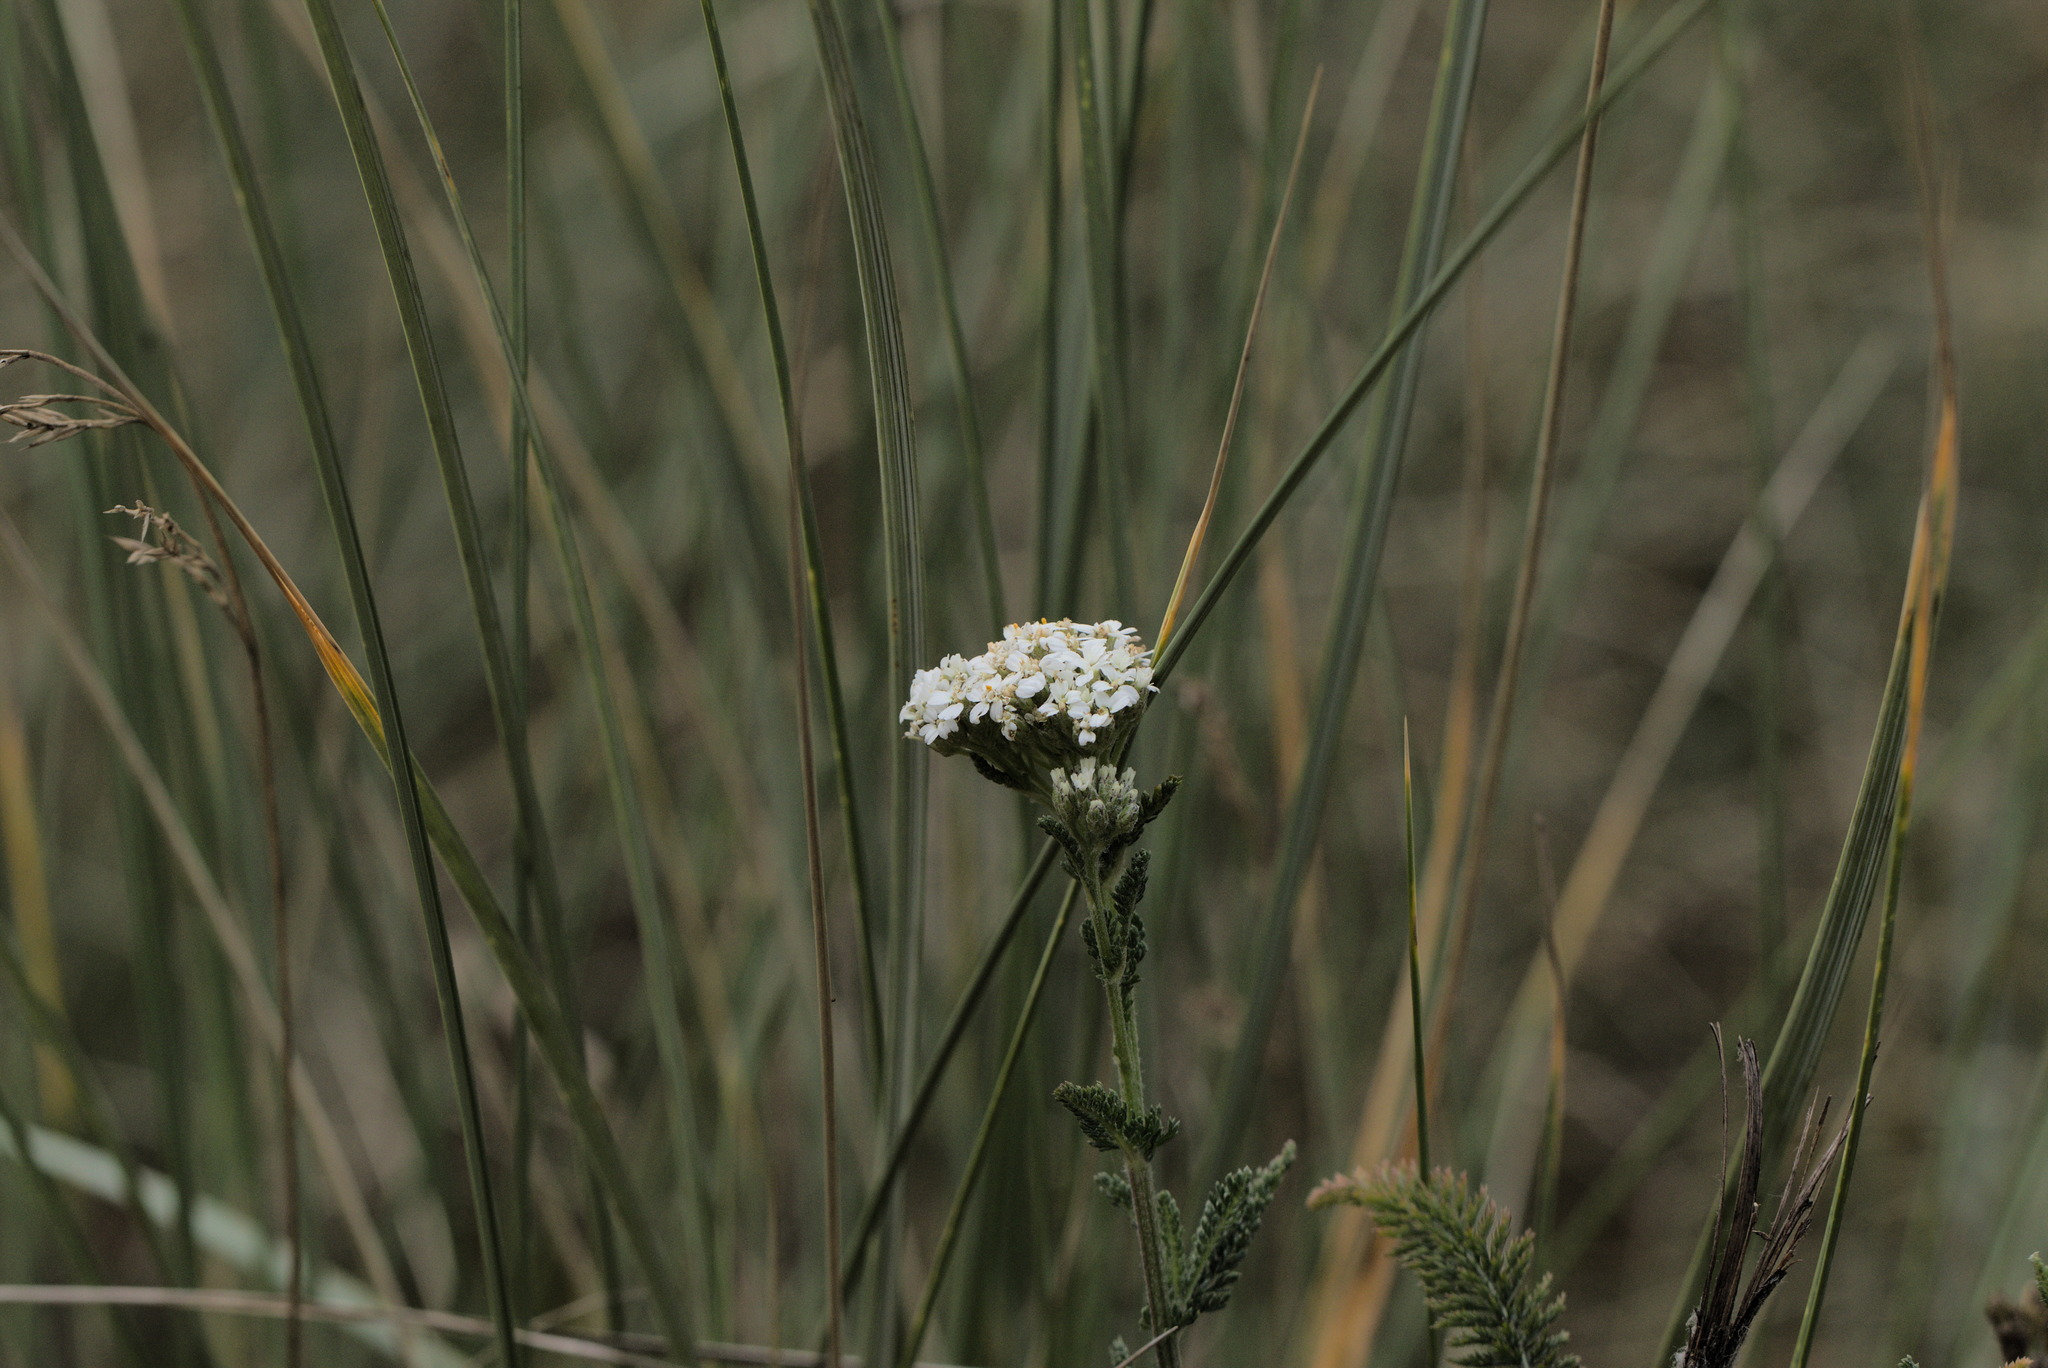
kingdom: Plantae
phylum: Tracheophyta
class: Magnoliopsida
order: Asterales
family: Asteraceae
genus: Achillea
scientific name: Achillea millefolium
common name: Yarrow
